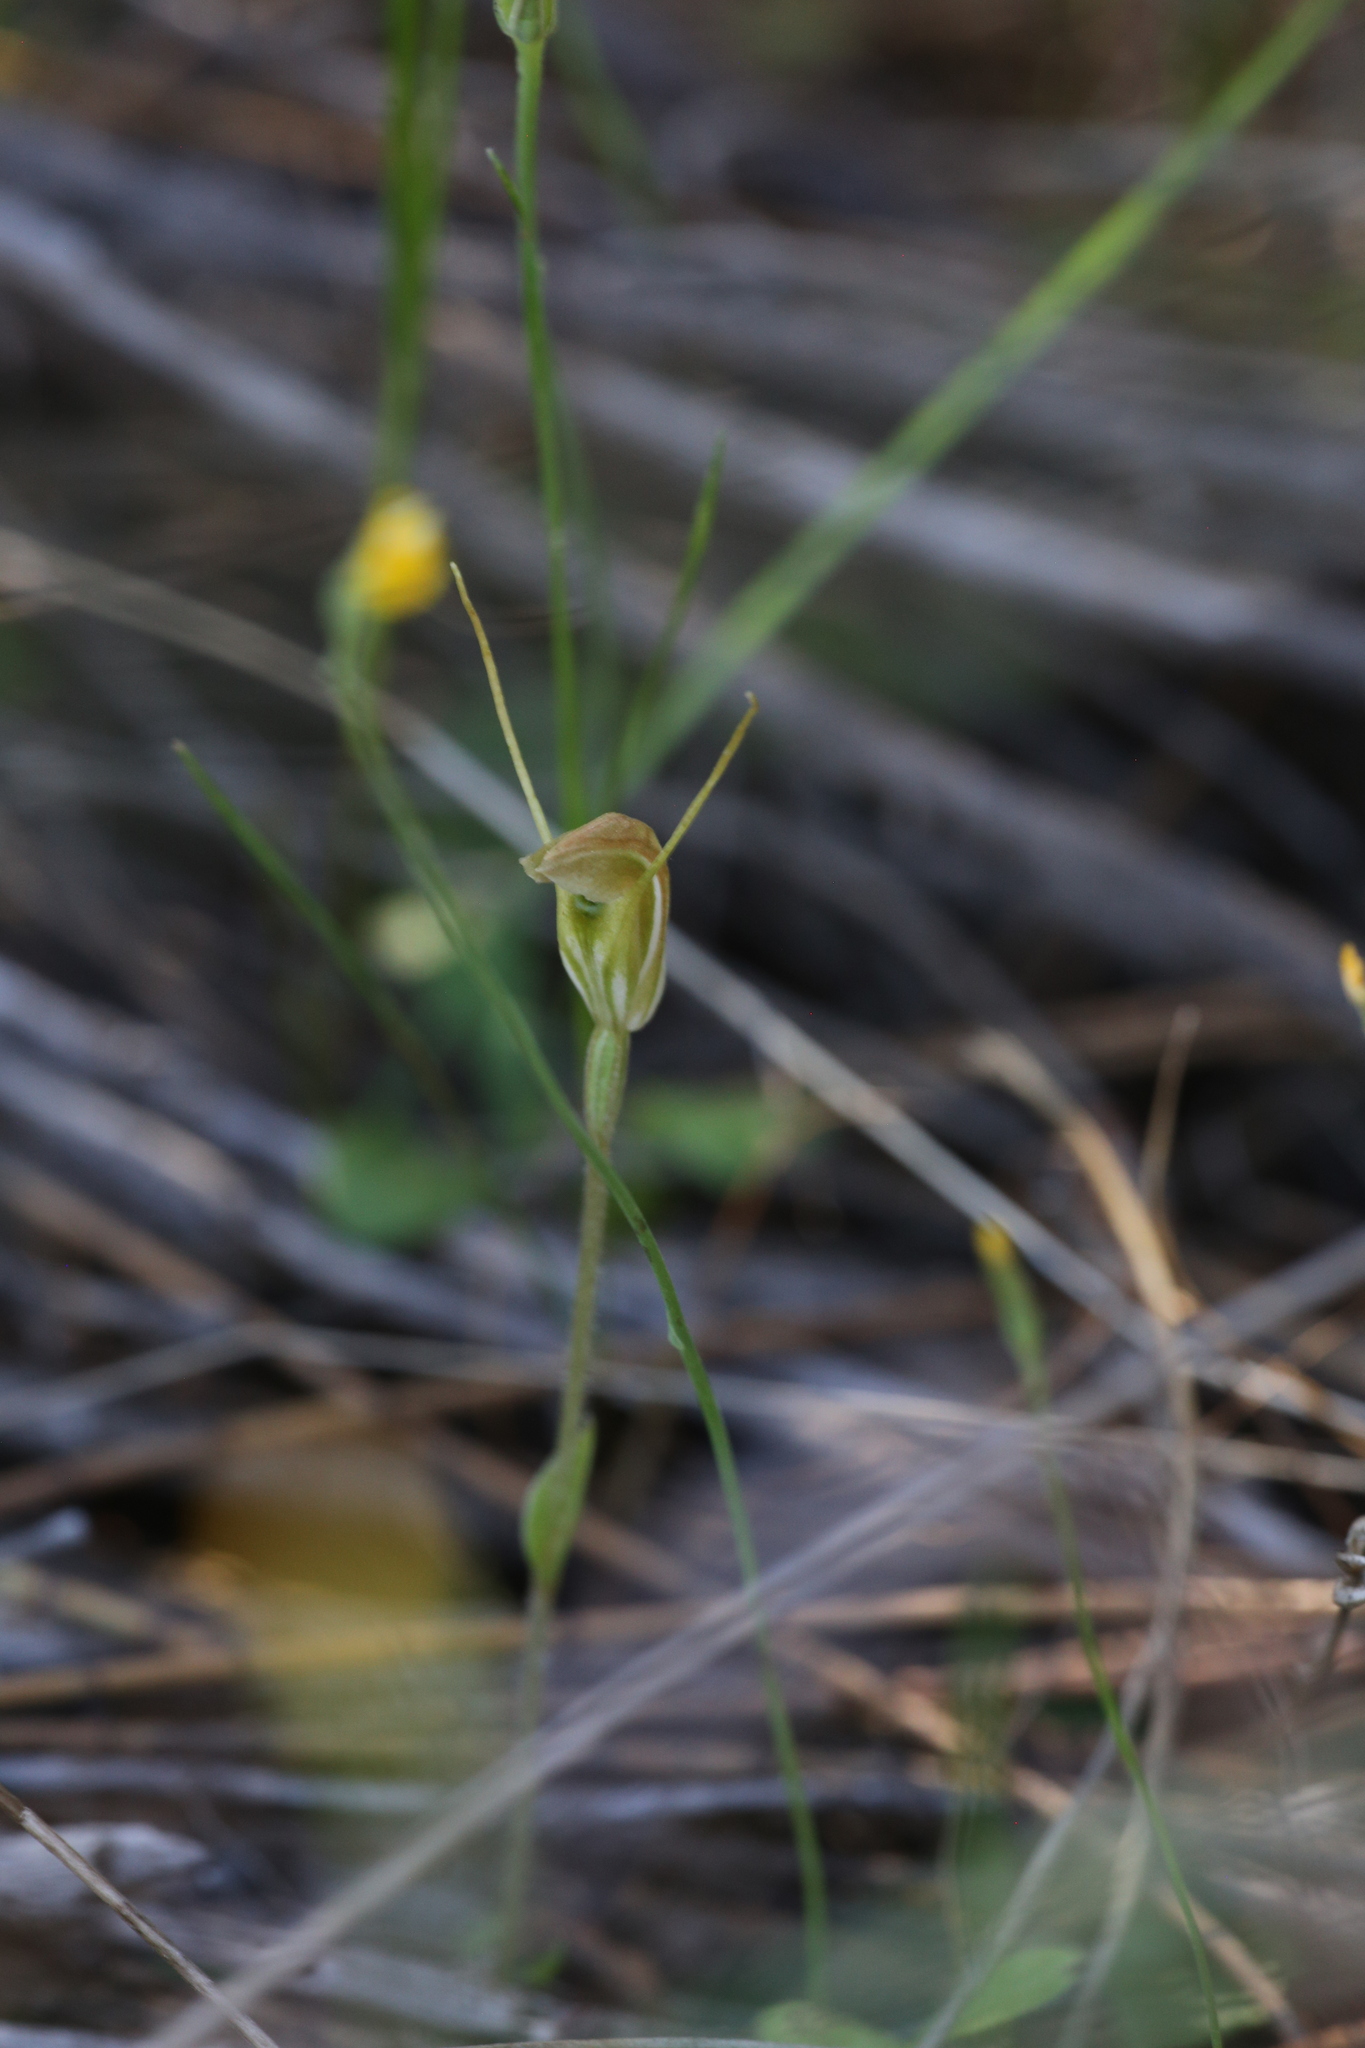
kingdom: Plantae
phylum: Tracheophyta
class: Liliopsida
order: Asparagales
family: Orchidaceae
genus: Pterostylis
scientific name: Pterostylis setulosa
